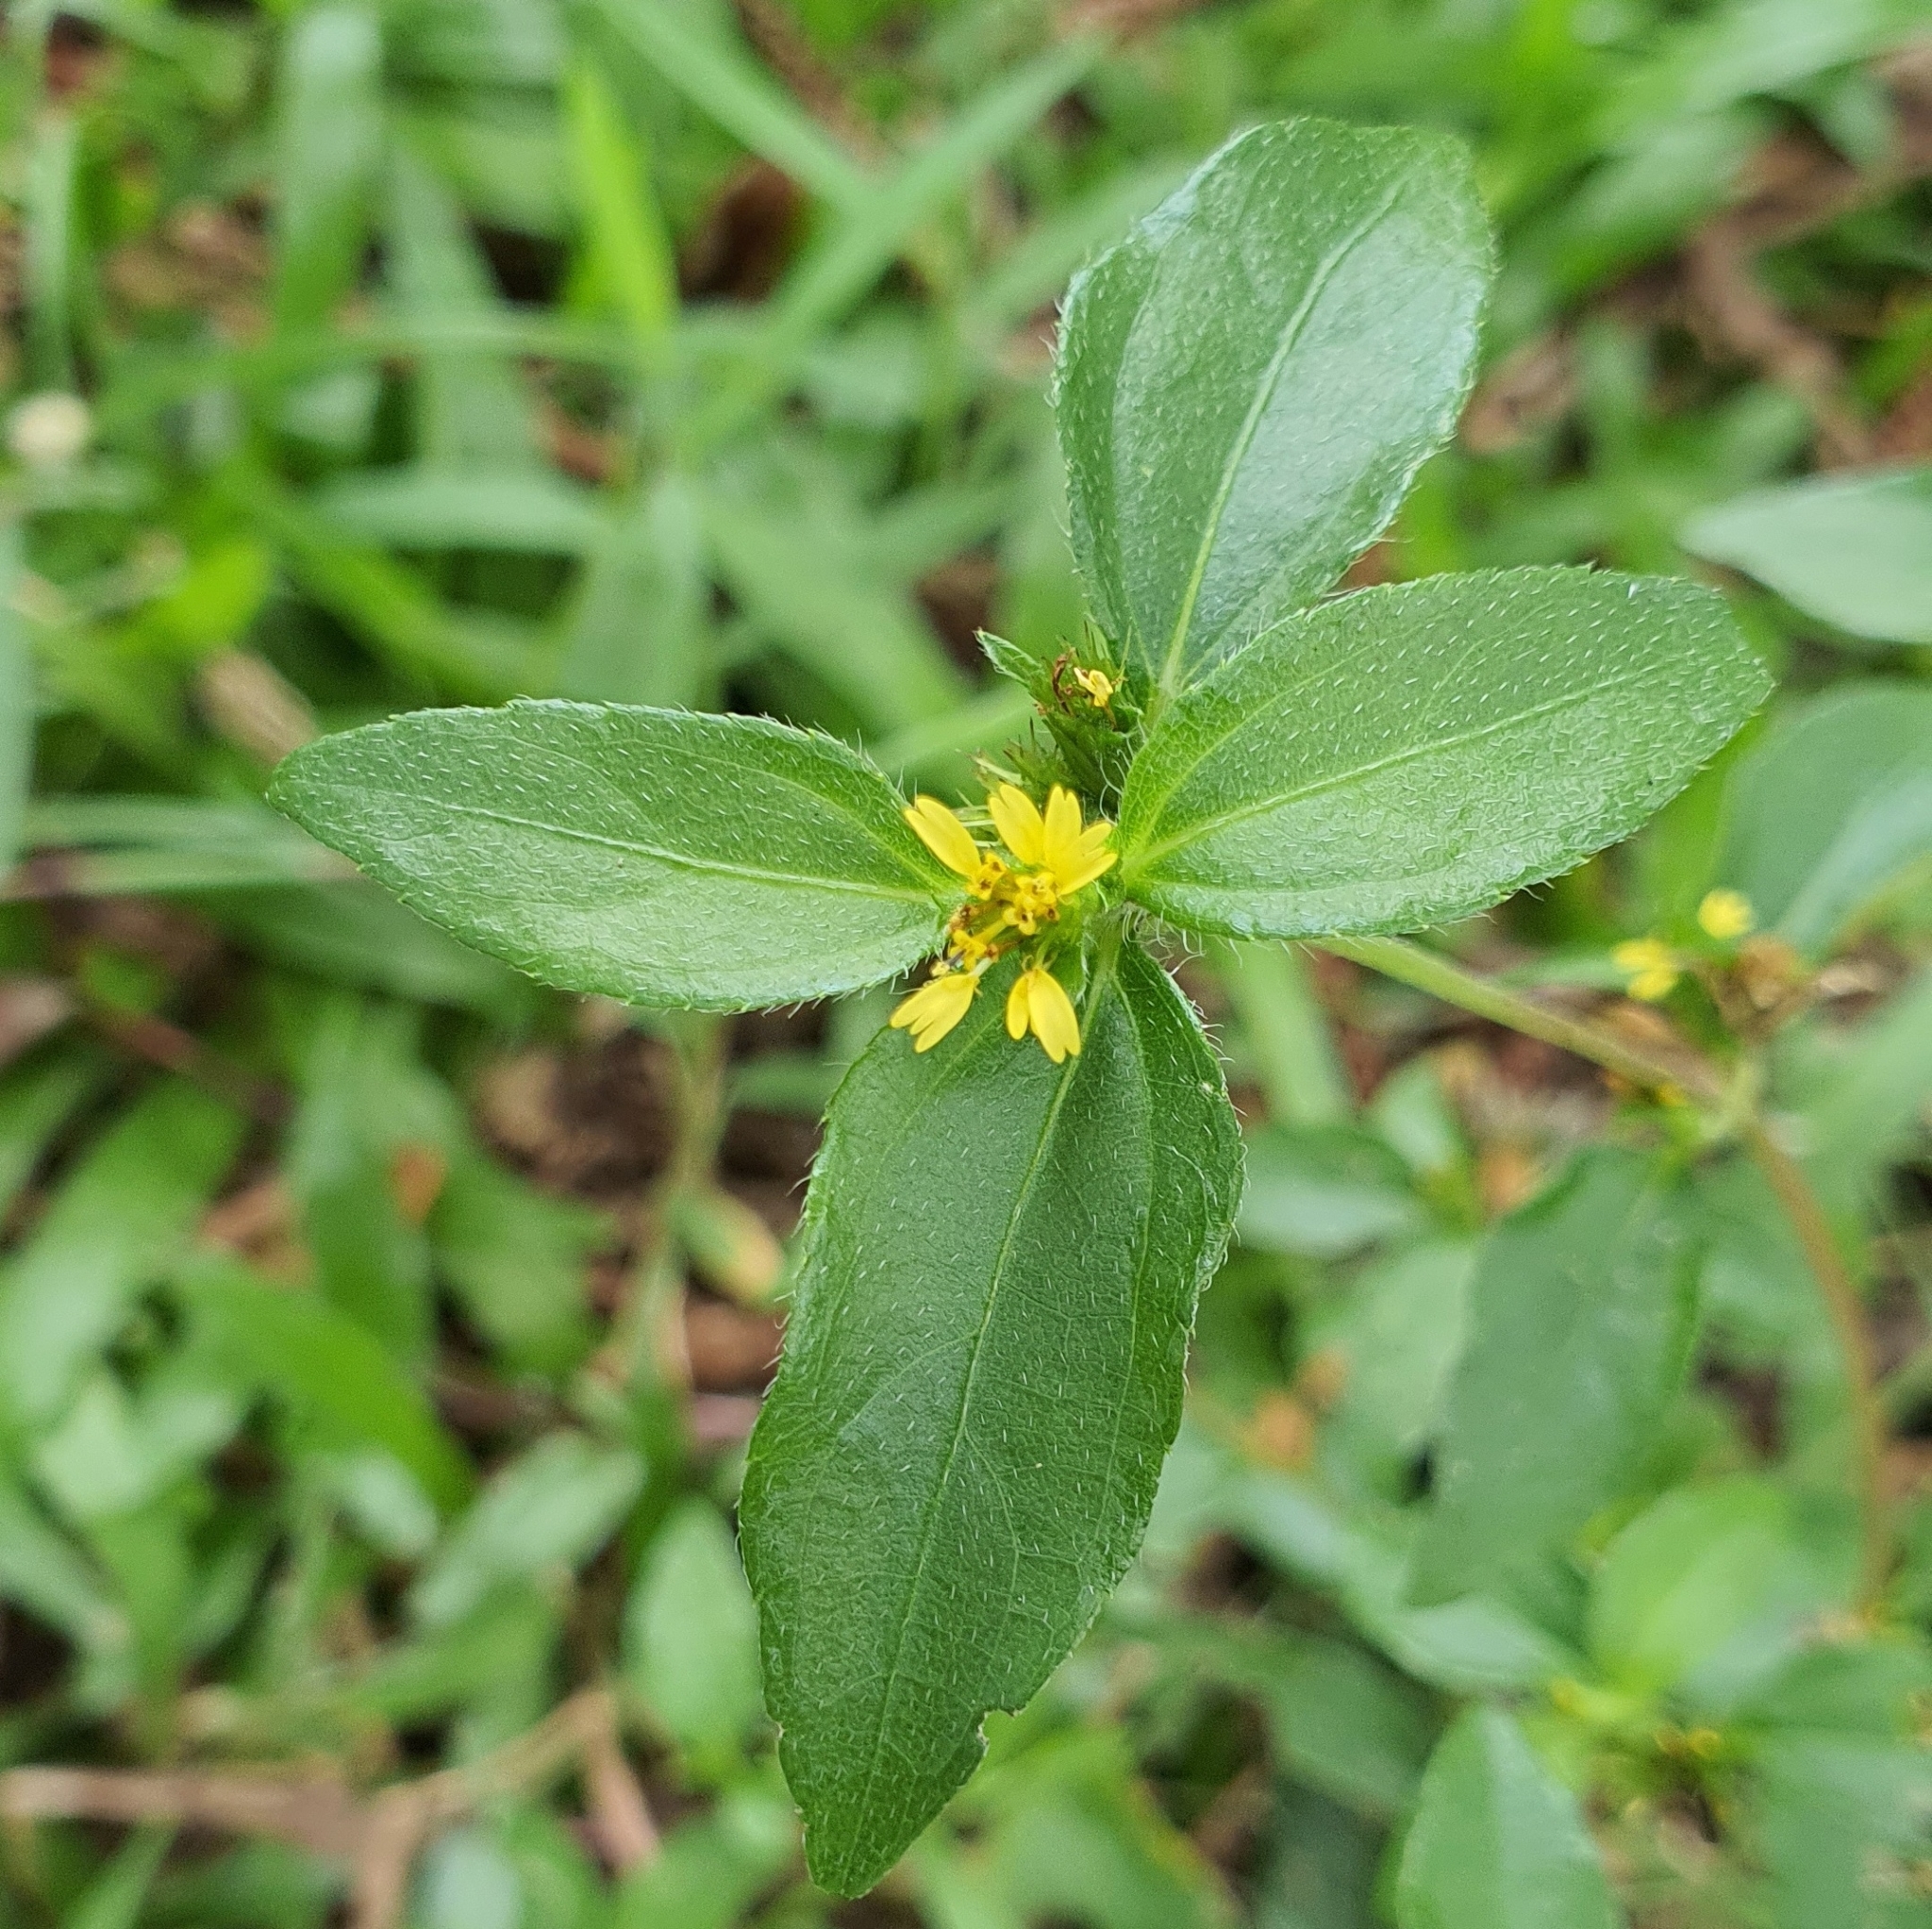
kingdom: Plantae
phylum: Tracheophyta
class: Magnoliopsida
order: Asterales
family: Asteraceae
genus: Synedrella
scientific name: Synedrella nodiflora
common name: Nodeweed
